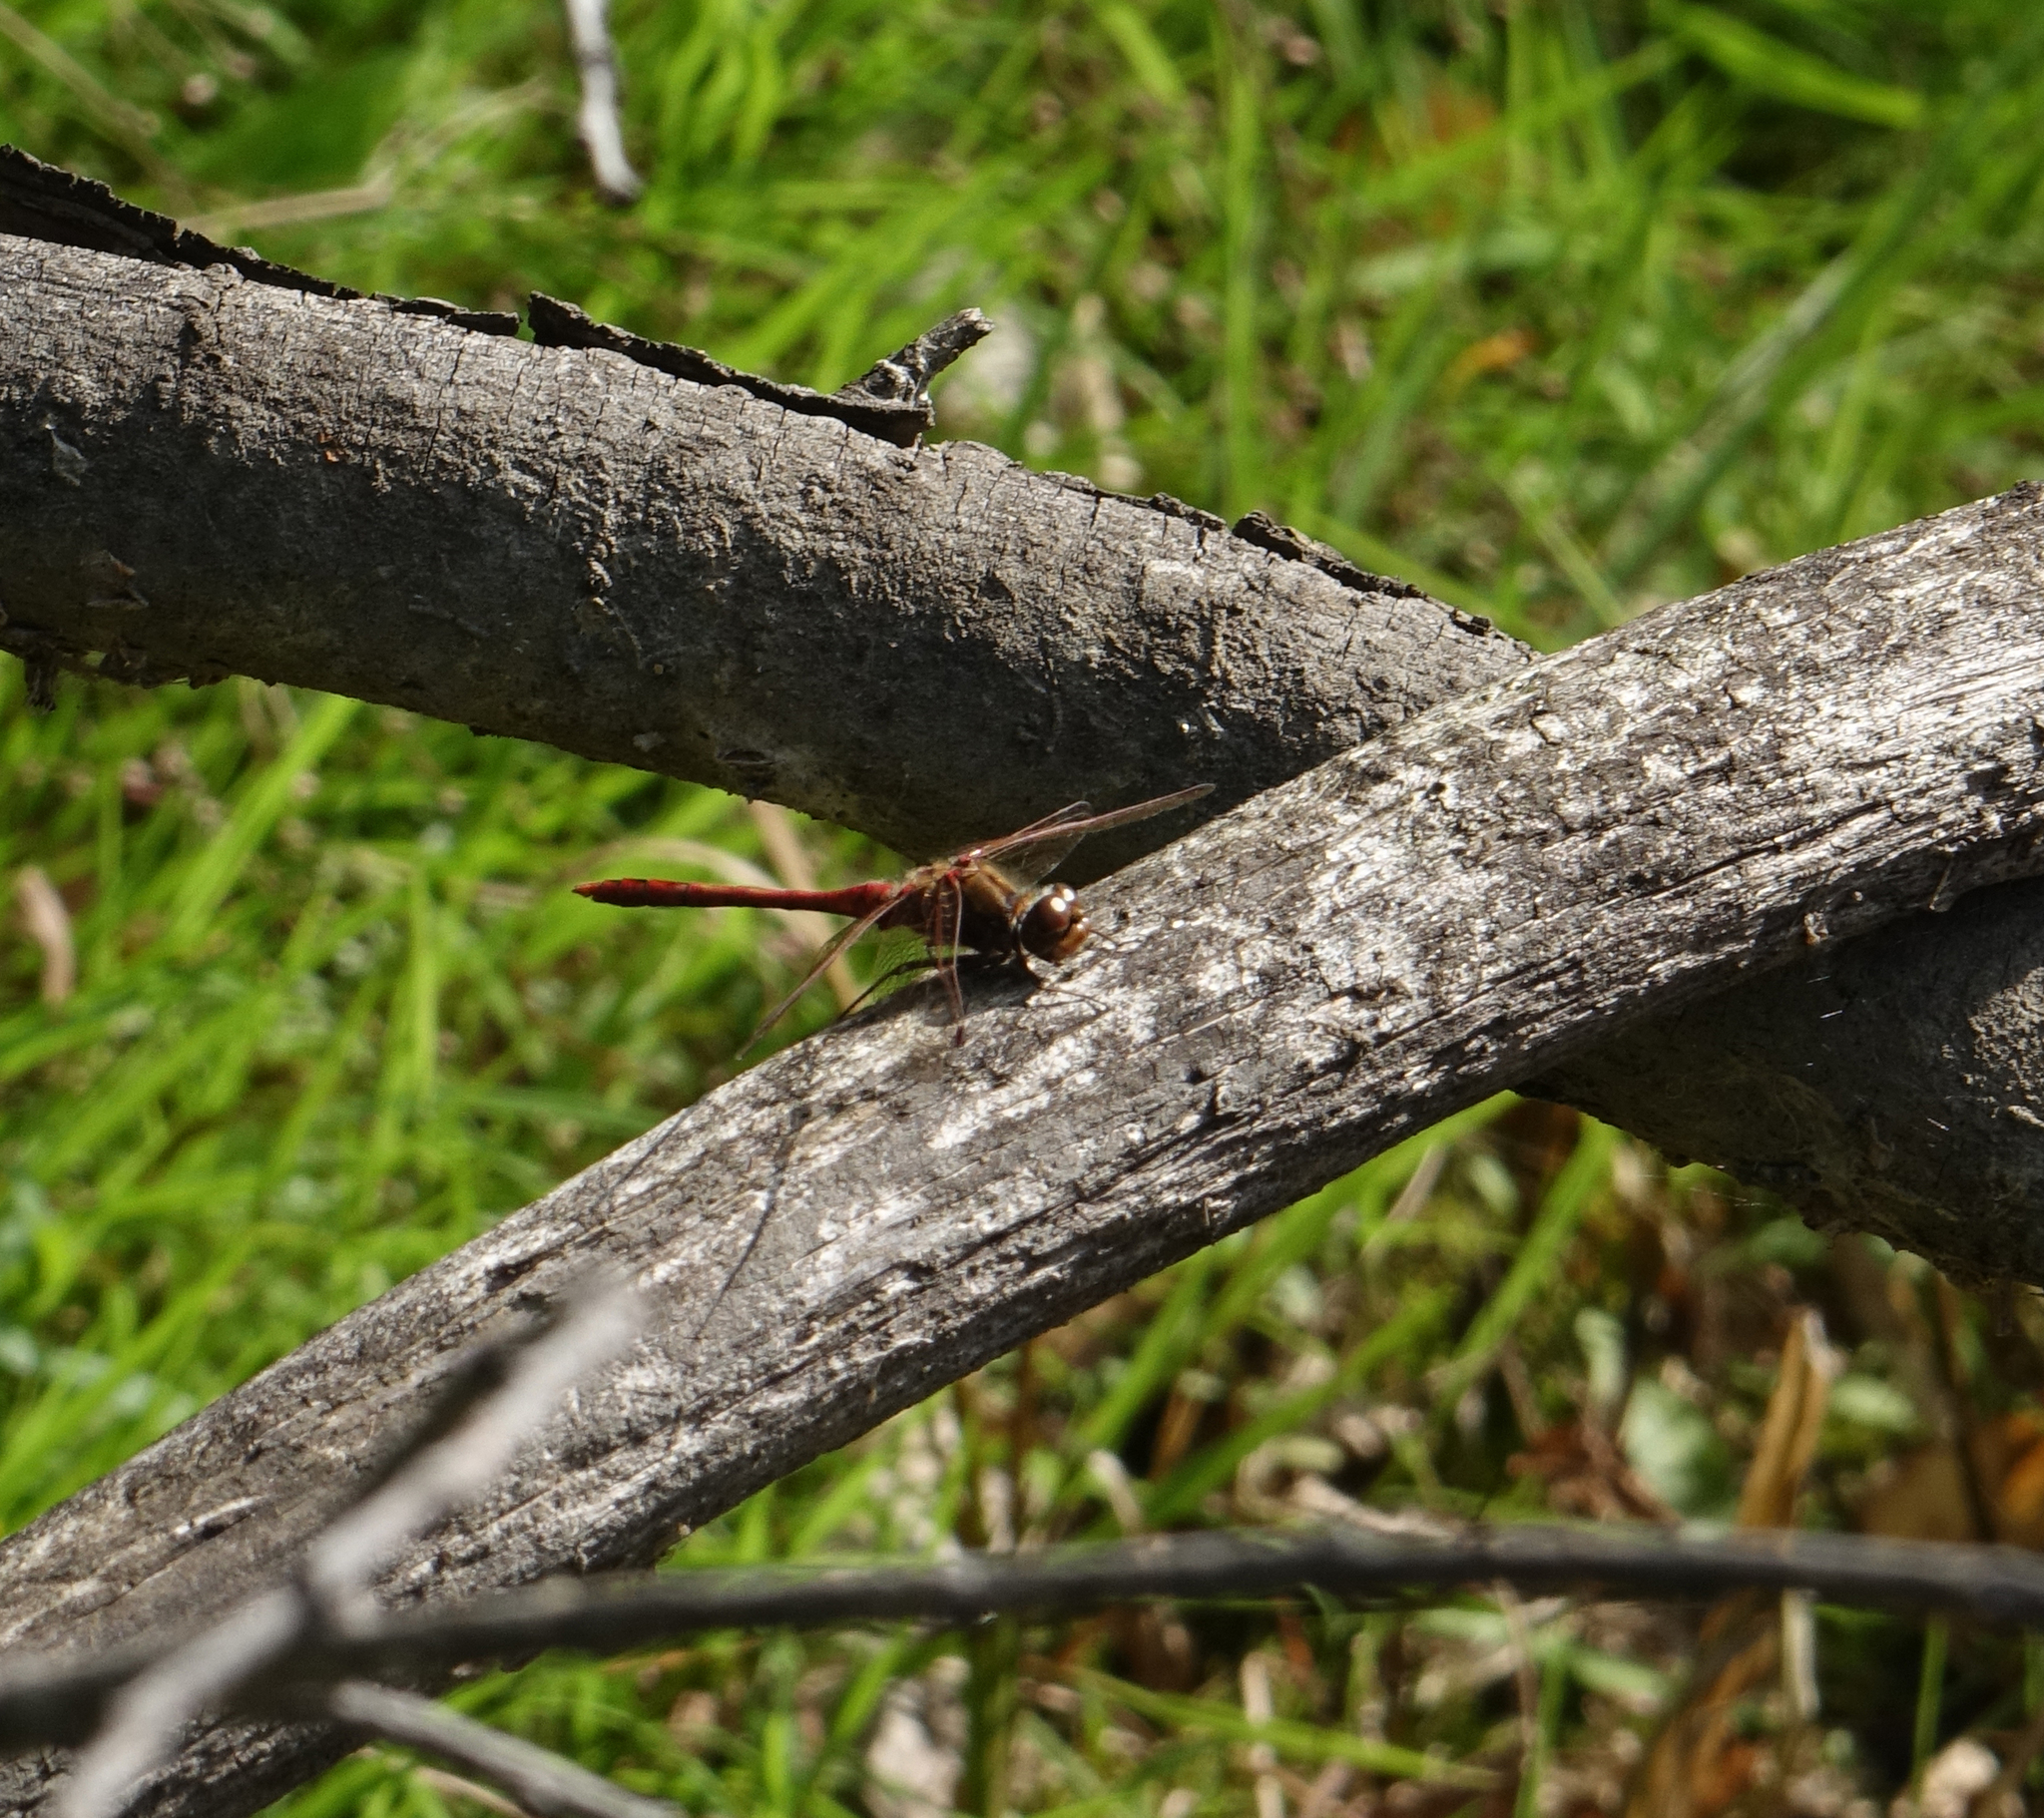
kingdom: Animalia
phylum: Arthropoda
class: Insecta
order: Odonata
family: Libellulidae
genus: Sympetrum
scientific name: Sympetrum vulgatum
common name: Vagrant darter
